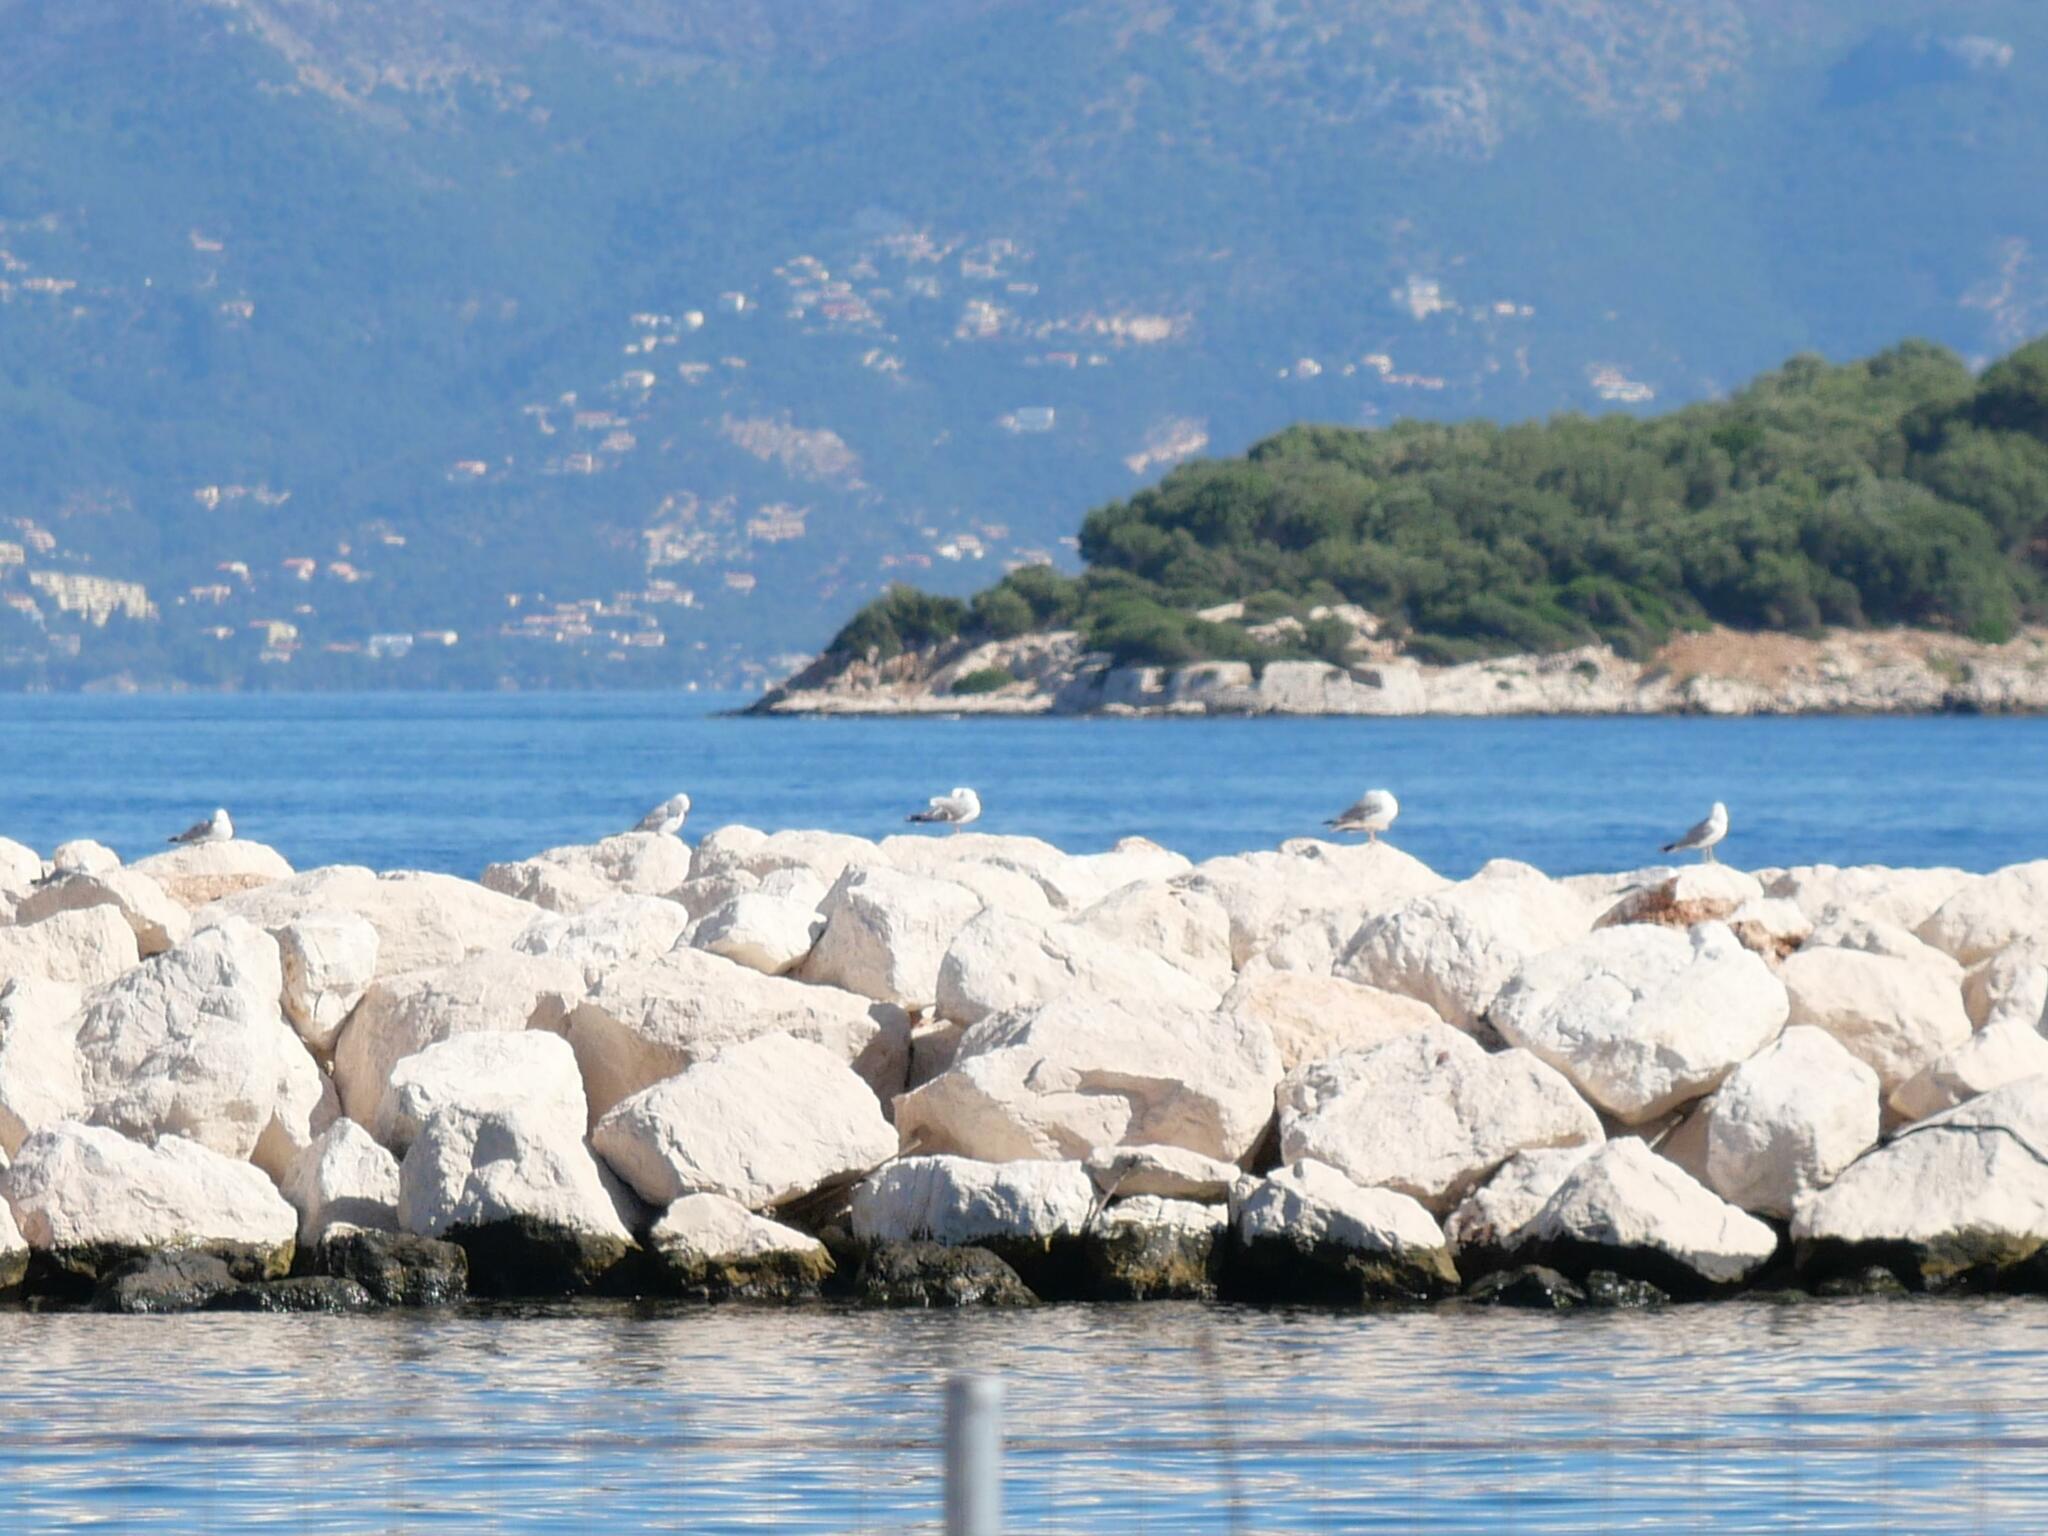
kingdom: Animalia
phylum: Chordata
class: Aves
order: Charadriiformes
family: Laridae
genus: Larus
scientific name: Larus michahellis
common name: Yellow-legged gull
